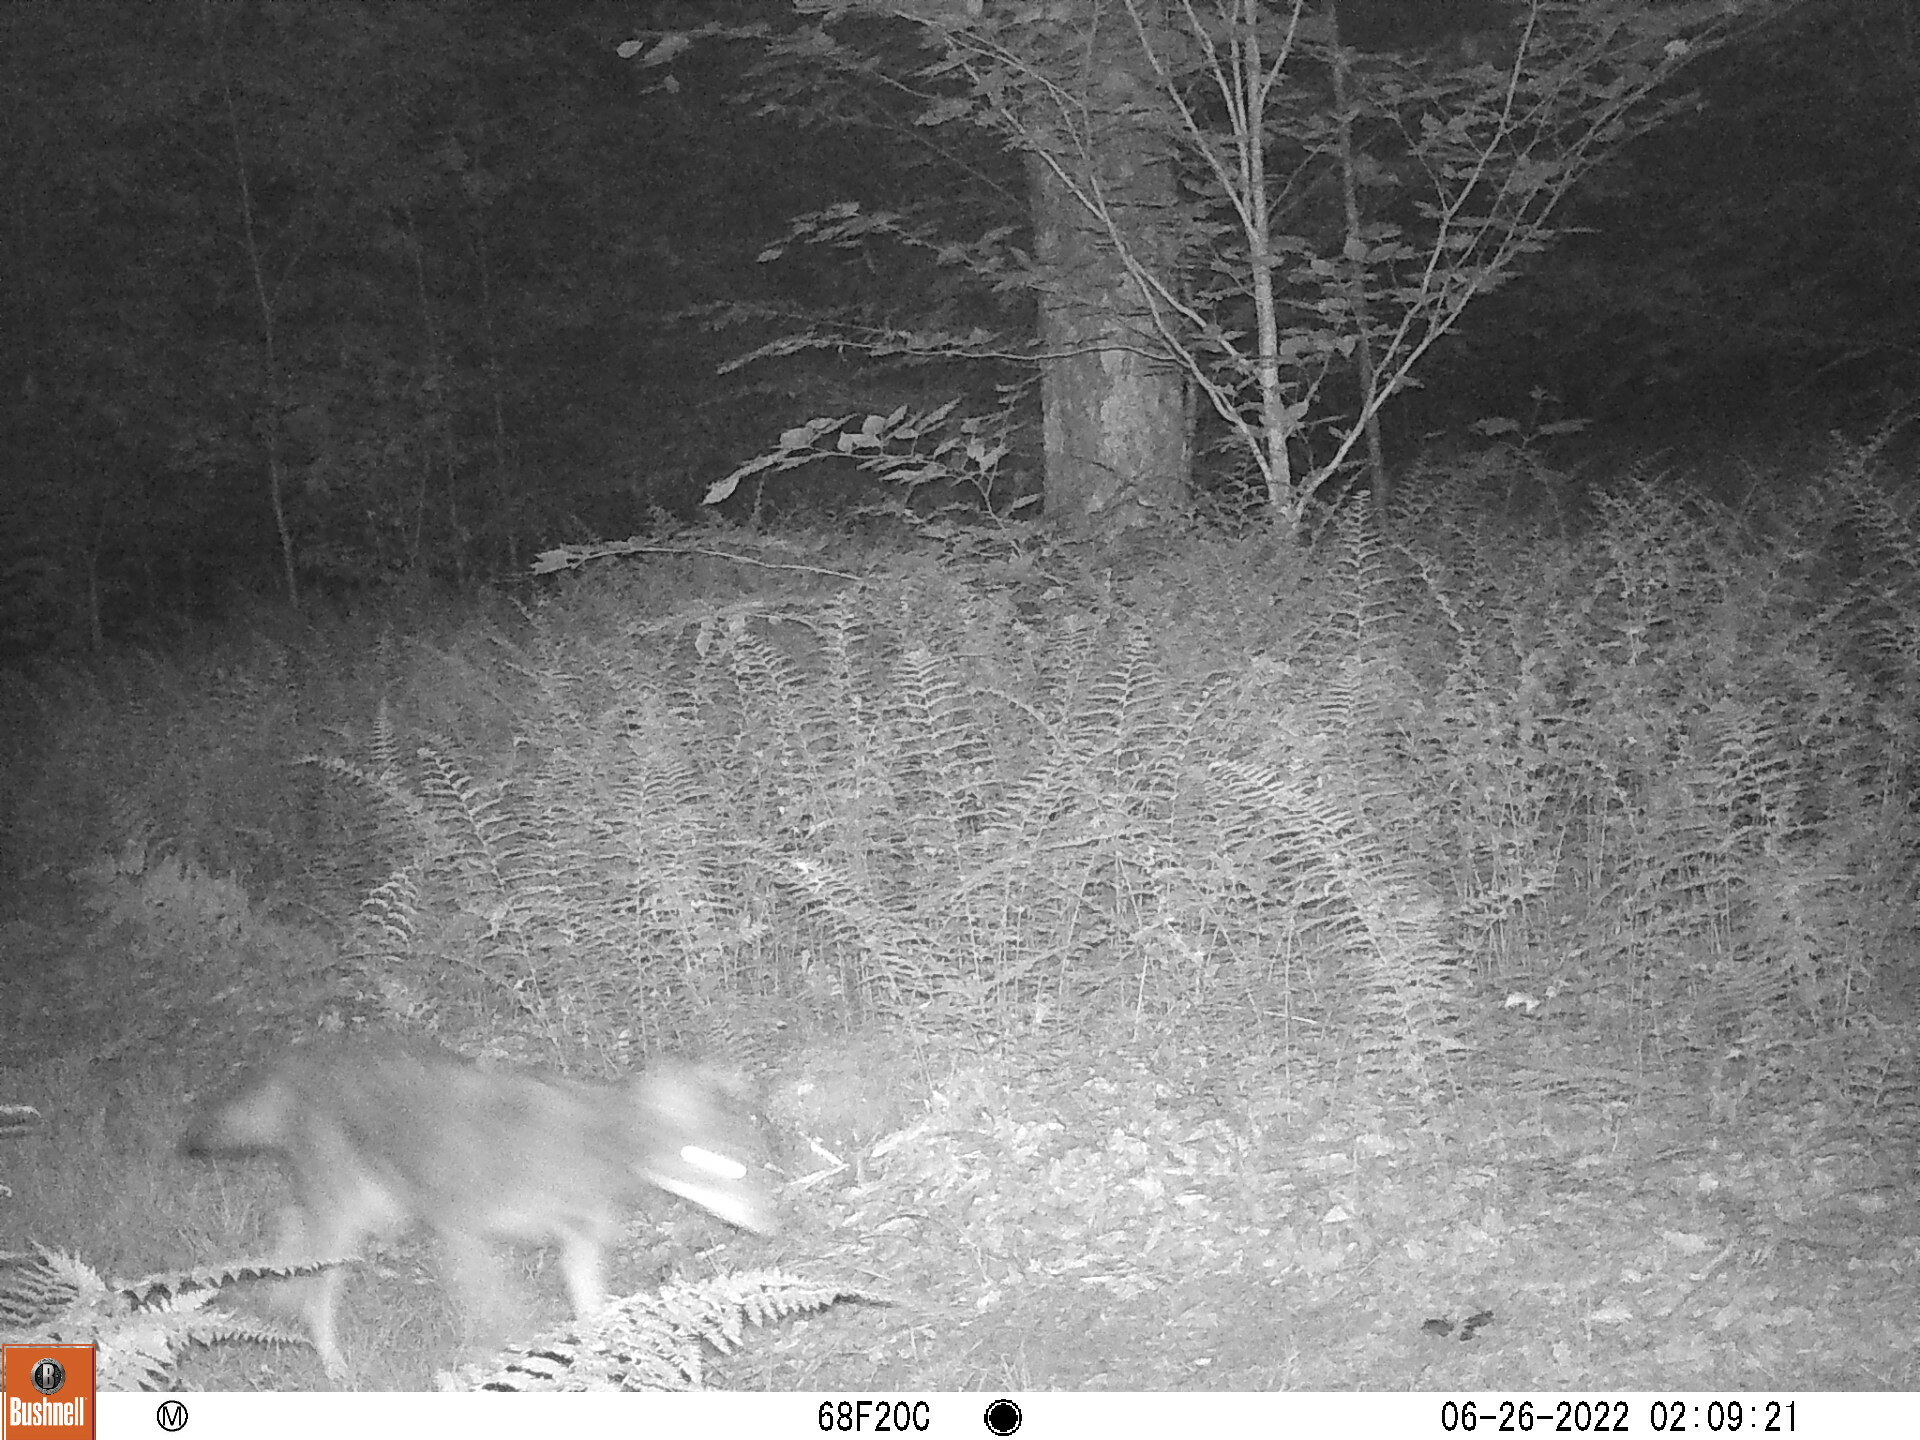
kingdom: Animalia
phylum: Chordata
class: Mammalia
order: Carnivora
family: Canidae
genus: Canis
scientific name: Canis latrans
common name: Coyote
